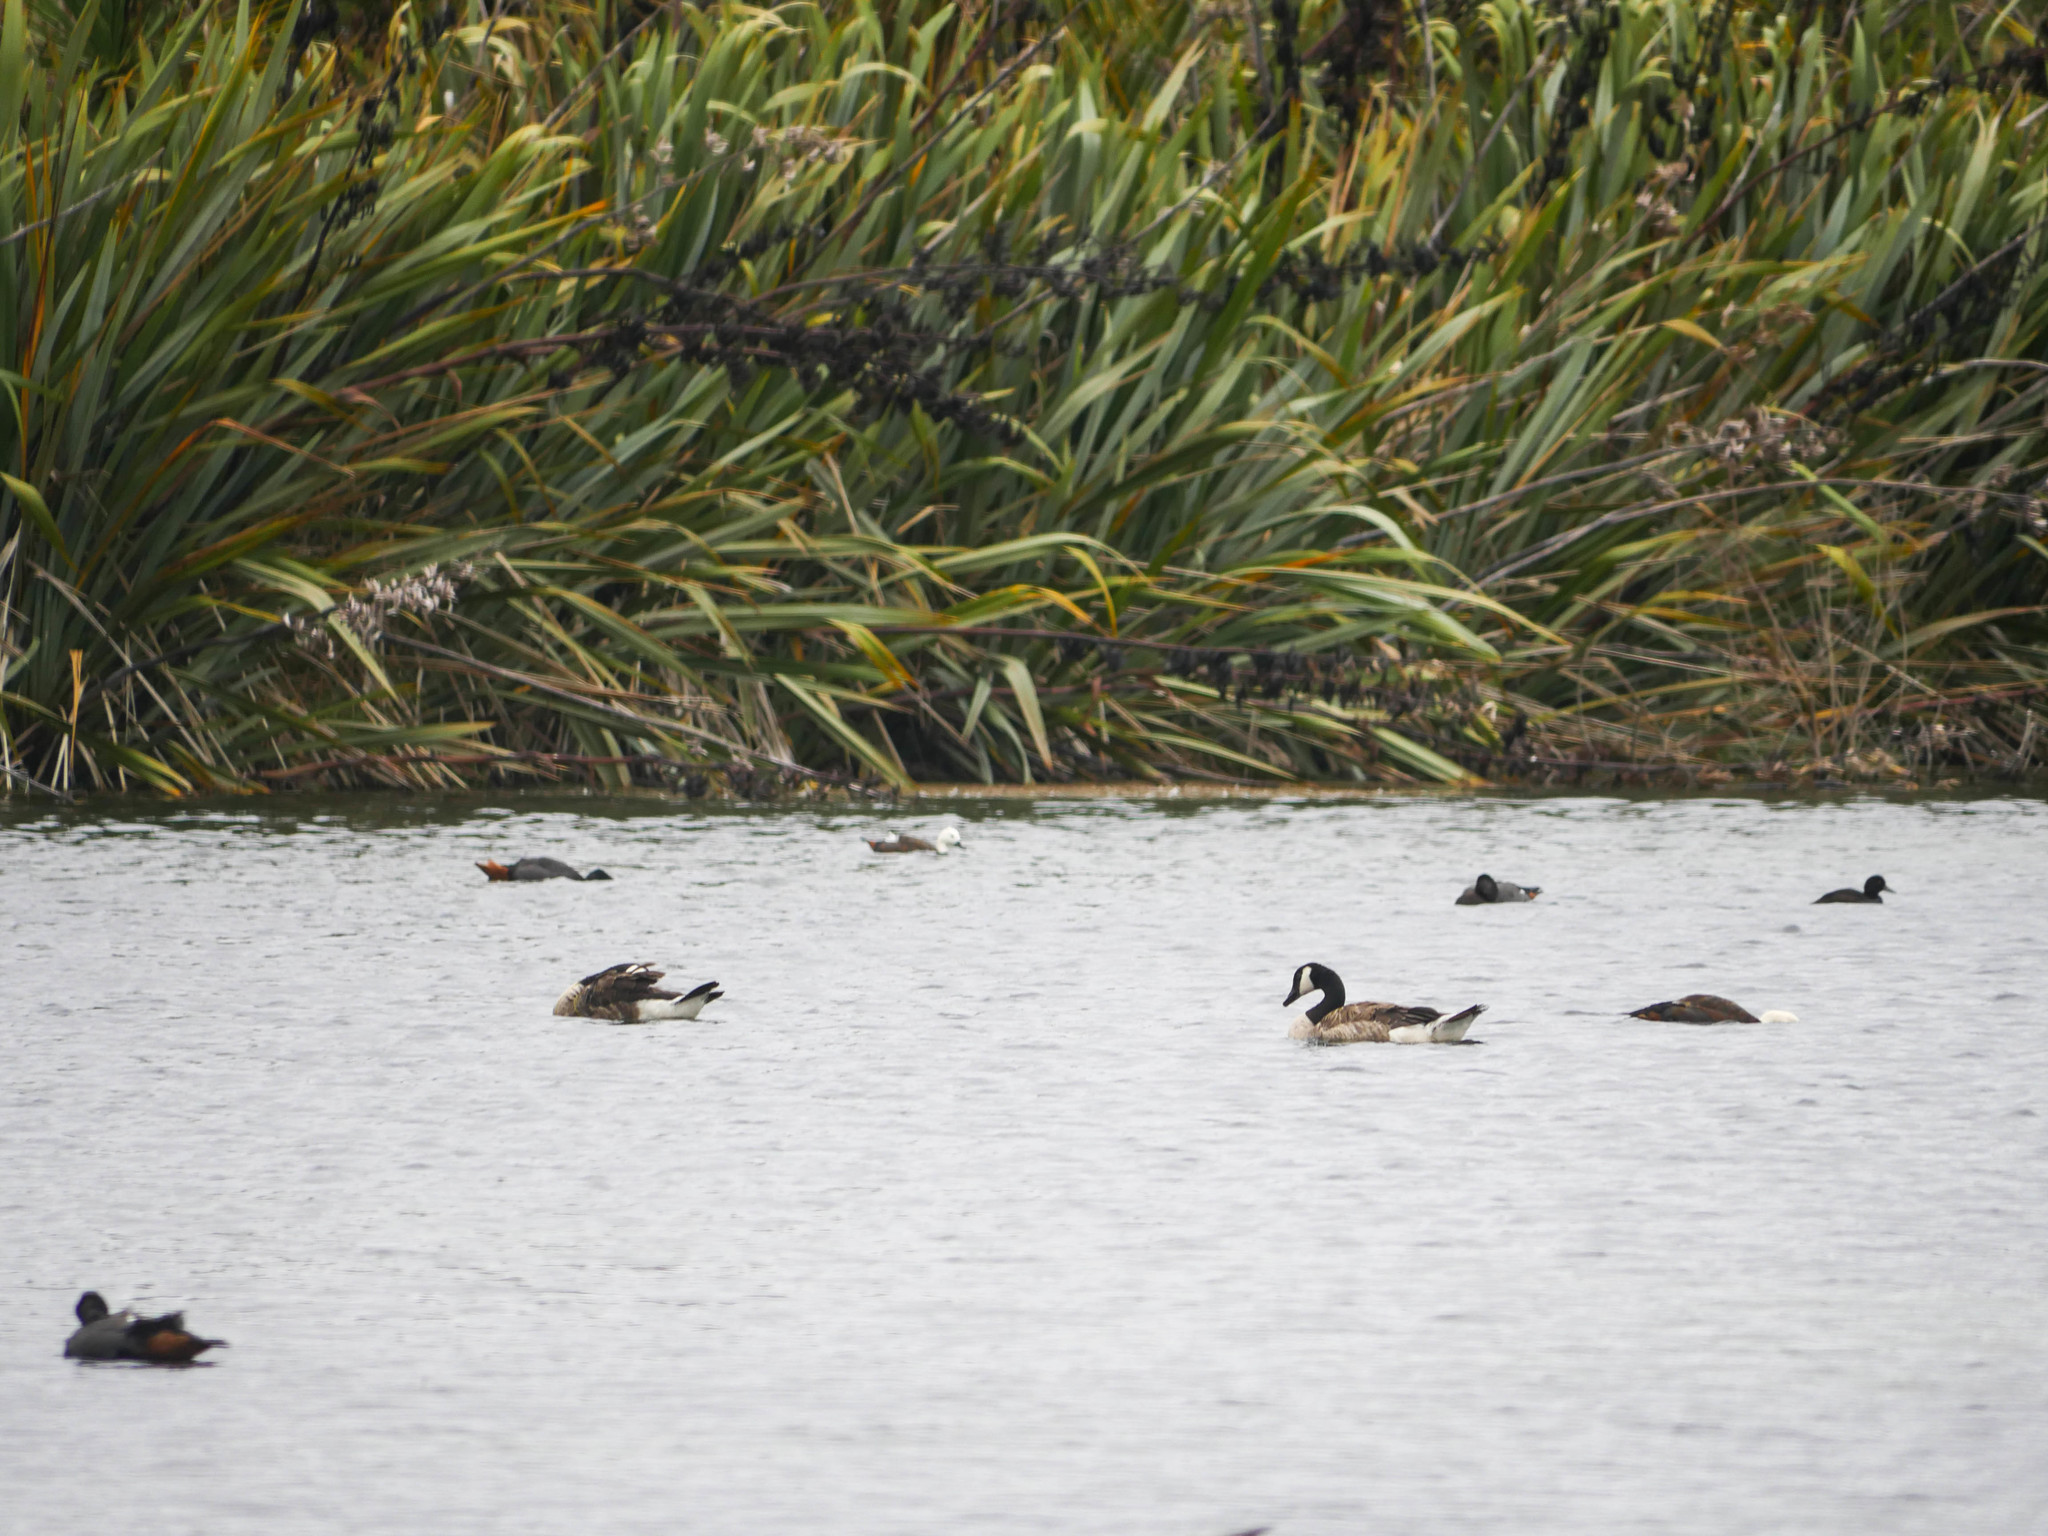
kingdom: Animalia
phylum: Chordata
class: Aves
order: Anseriformes
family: Anatidae
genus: Branta
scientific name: Branta canadensis
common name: Canada goose
